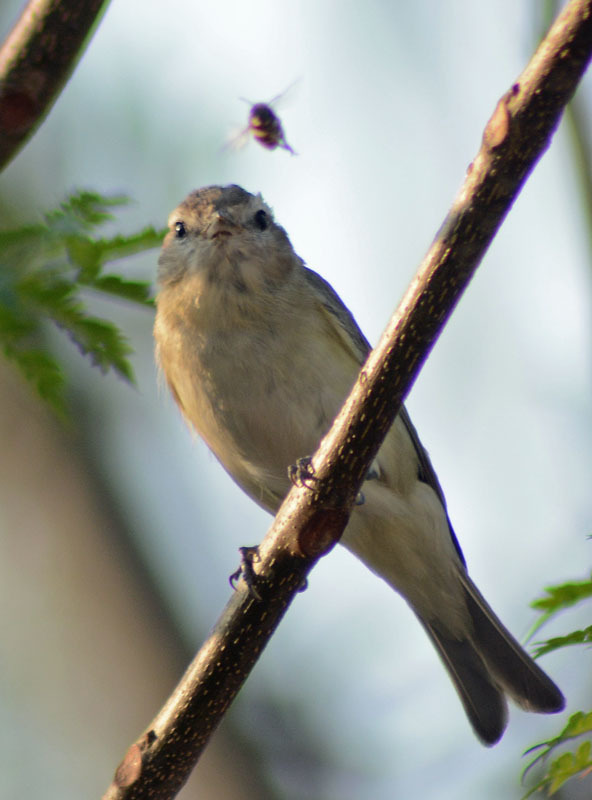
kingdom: Animalia
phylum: Chordata
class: Aves
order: Passeriformes
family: Vireonidae
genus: Vireo
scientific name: Vireo gilvus
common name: Warbling vireo
